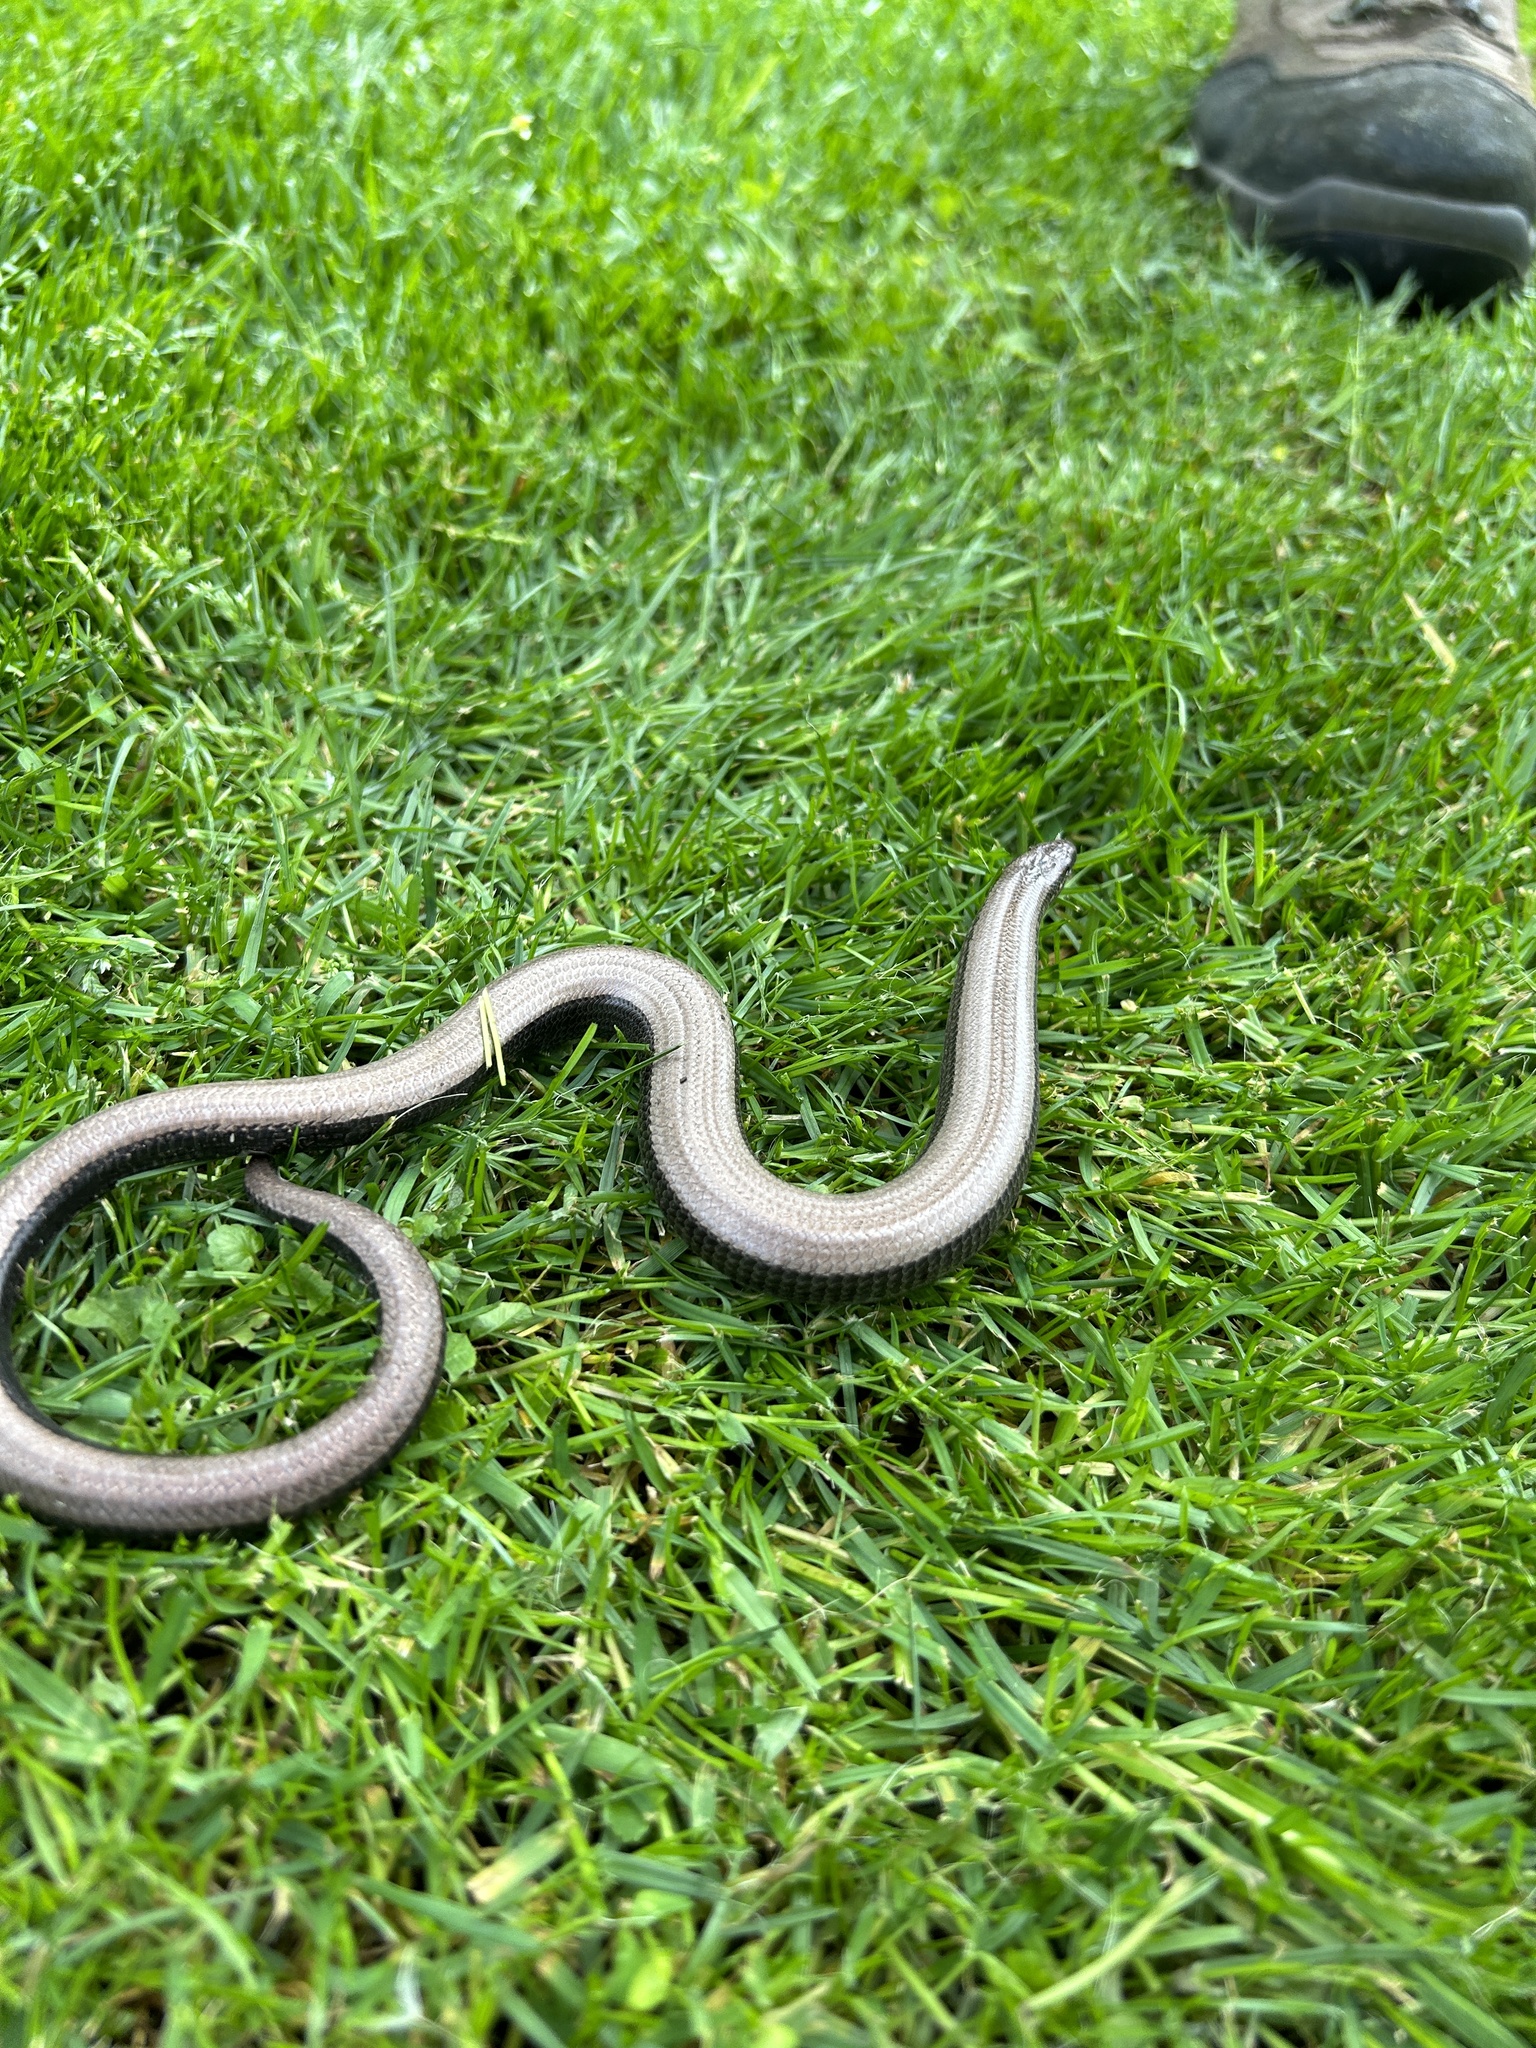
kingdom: Animalia
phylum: Chordata
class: Squamata
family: Anguidae
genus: Anguis
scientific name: Anguis fragilis
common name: Slow worm
